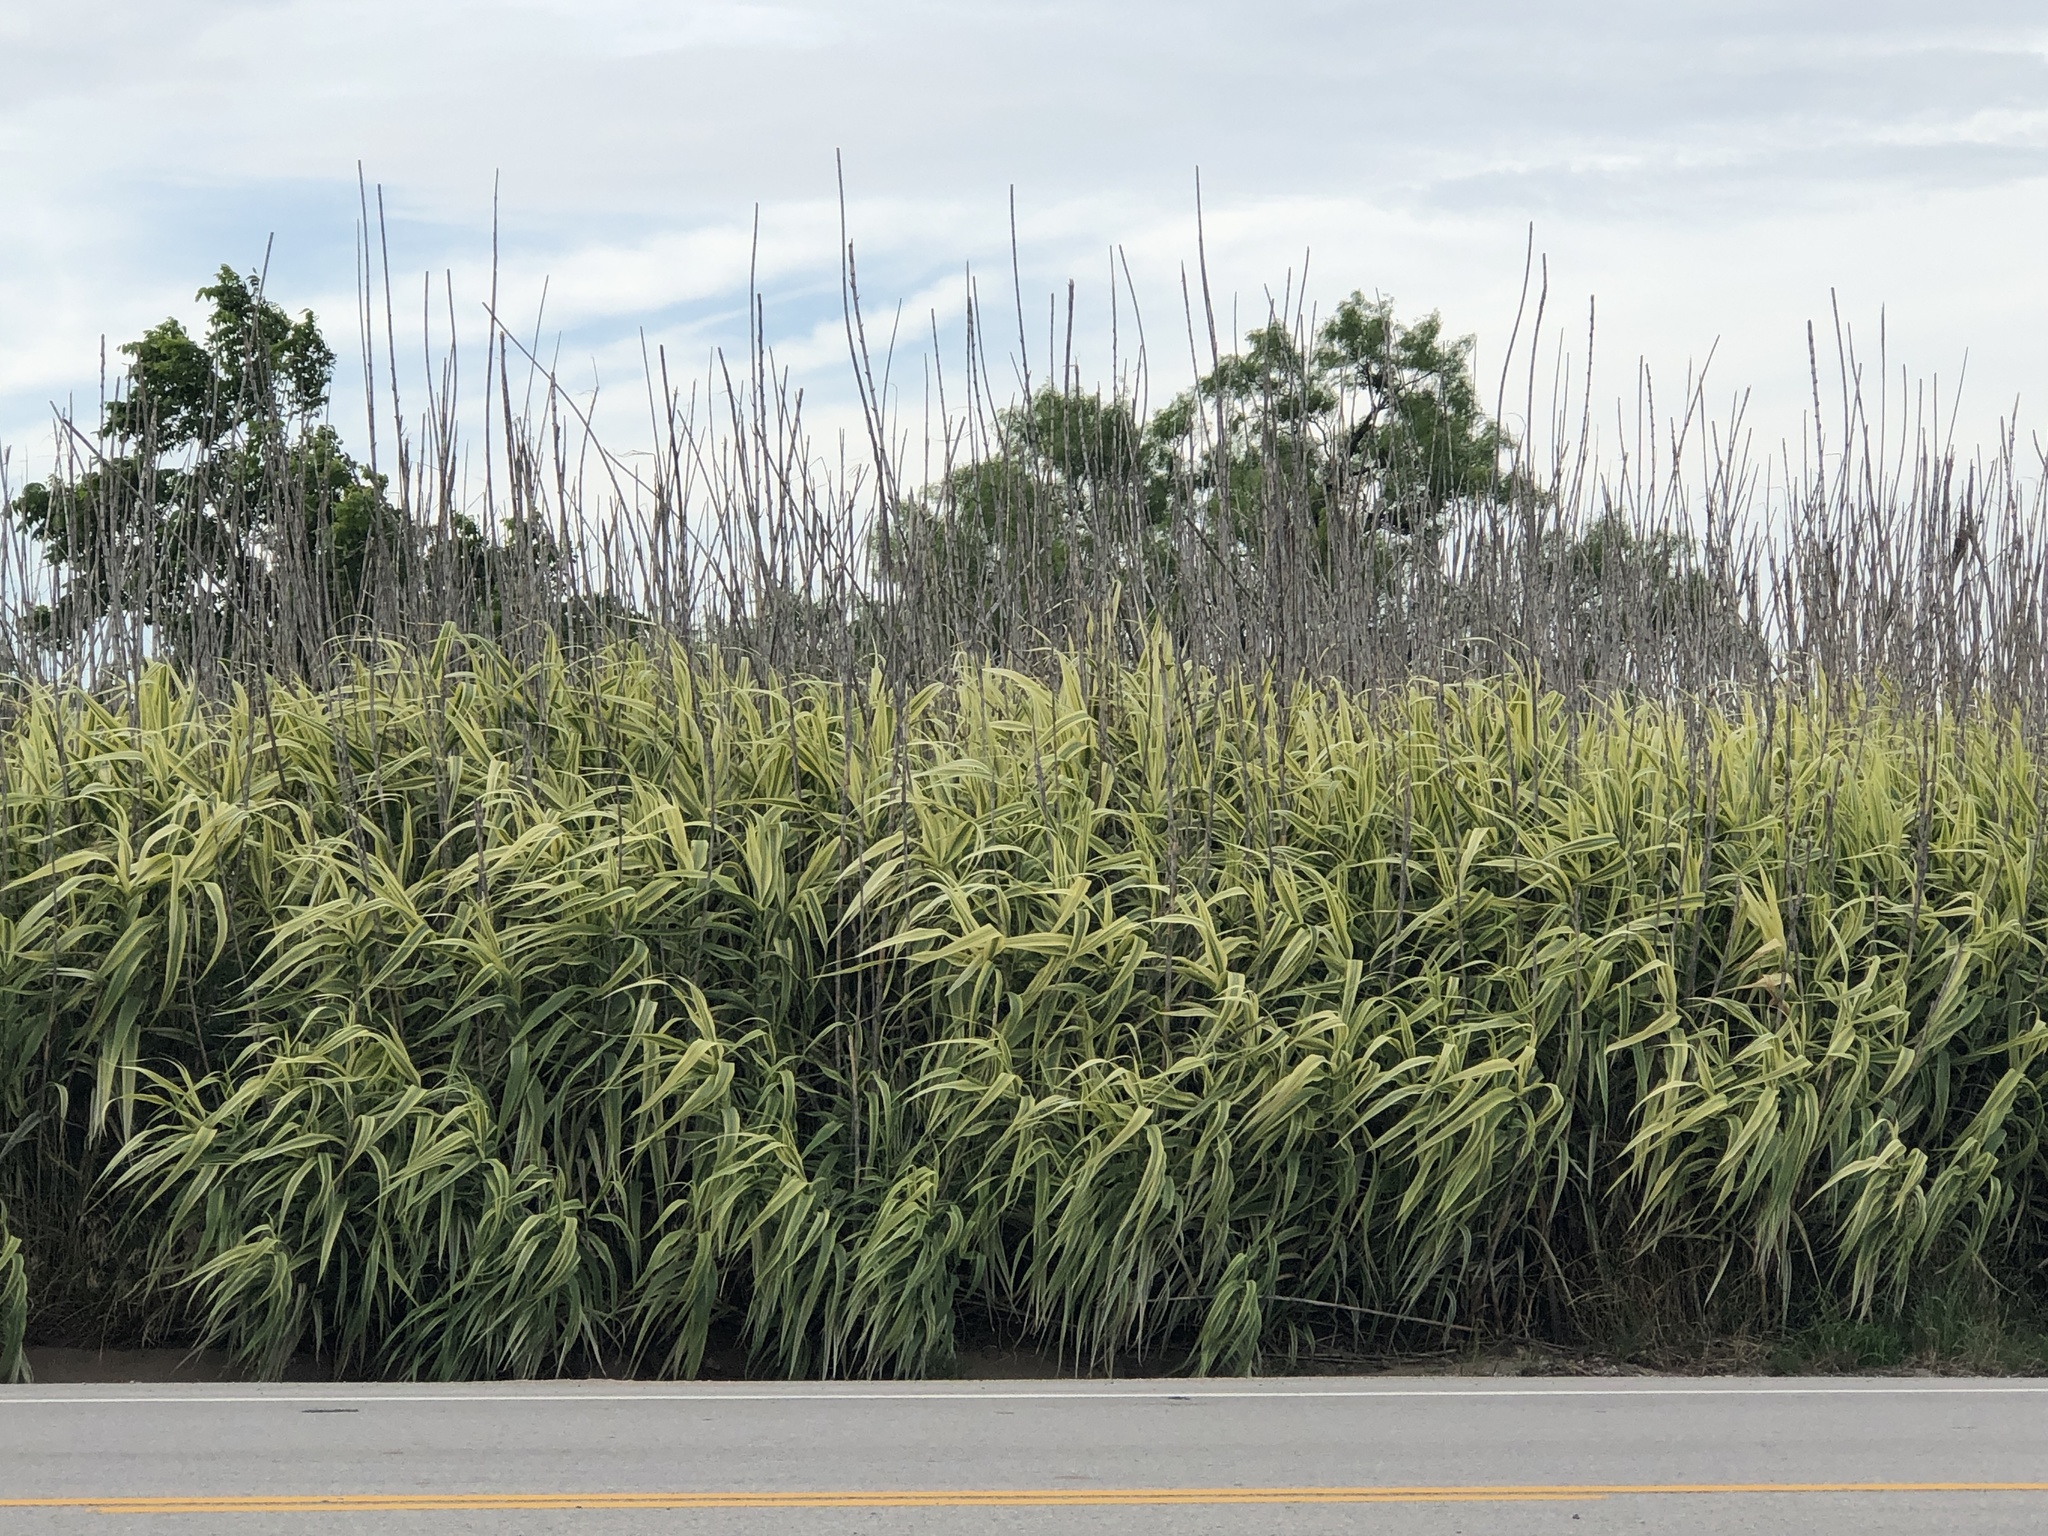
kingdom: Plantae
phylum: Tracheophyta
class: Liliopsida
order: Poales
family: Poaceae
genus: Arundo
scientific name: Arundo donax
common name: Giant reed
